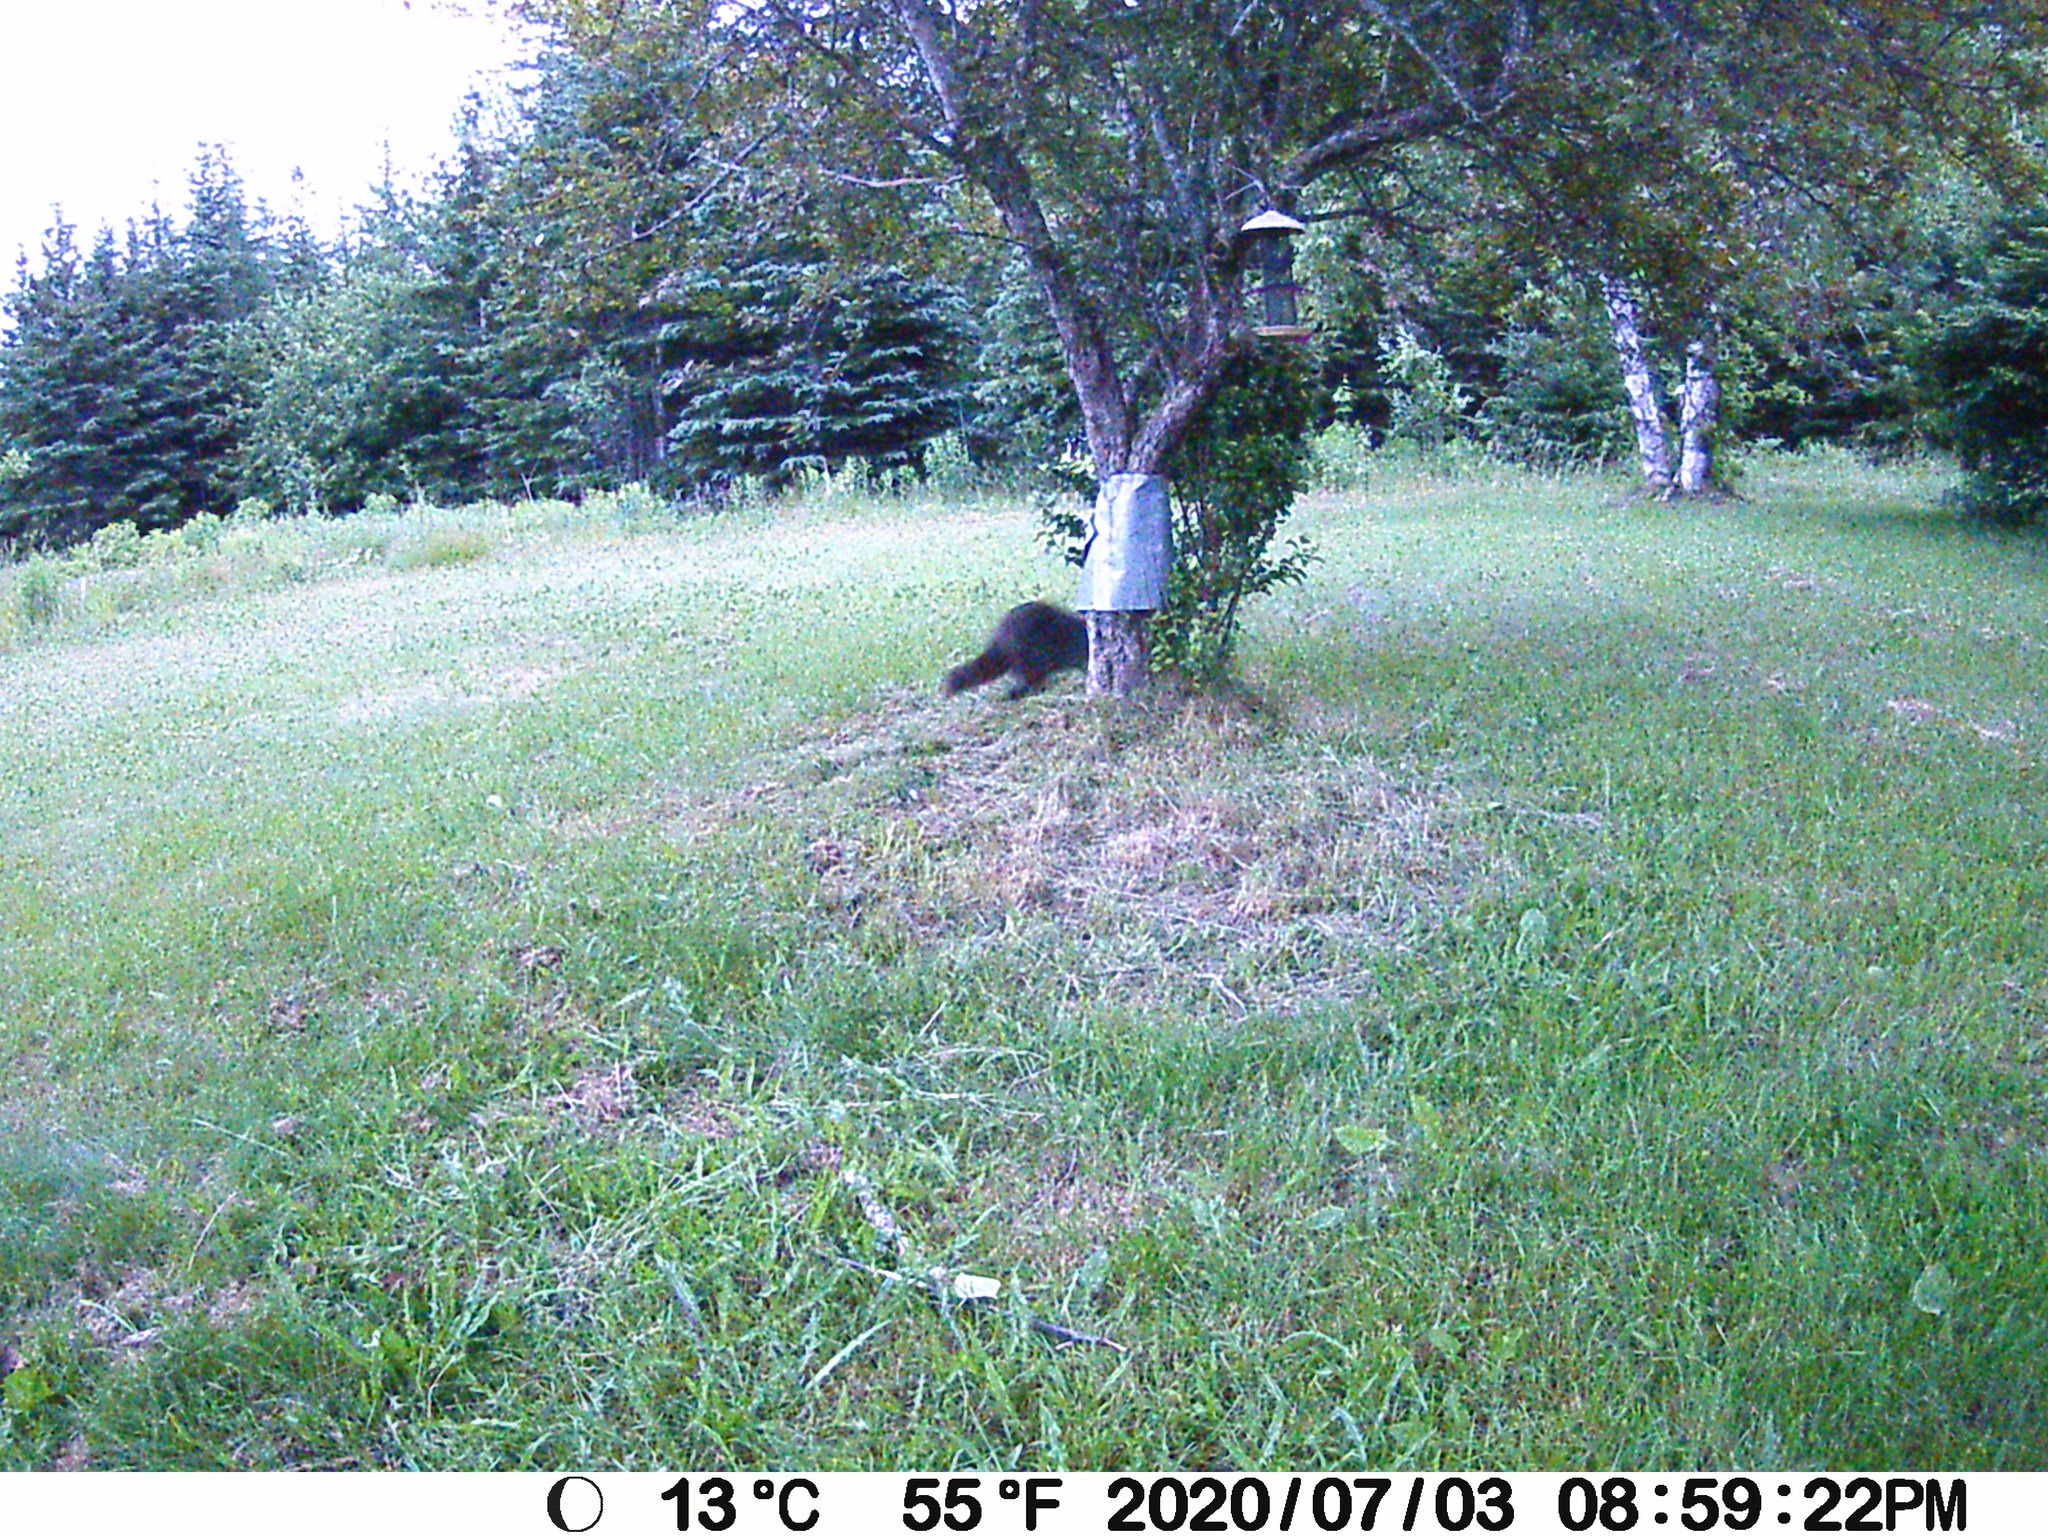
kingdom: Animalia
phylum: Chordata
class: Mammalia
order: Carnivora
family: Procyonidae
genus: Procyon
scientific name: Procyon lotor
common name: Raccoon
